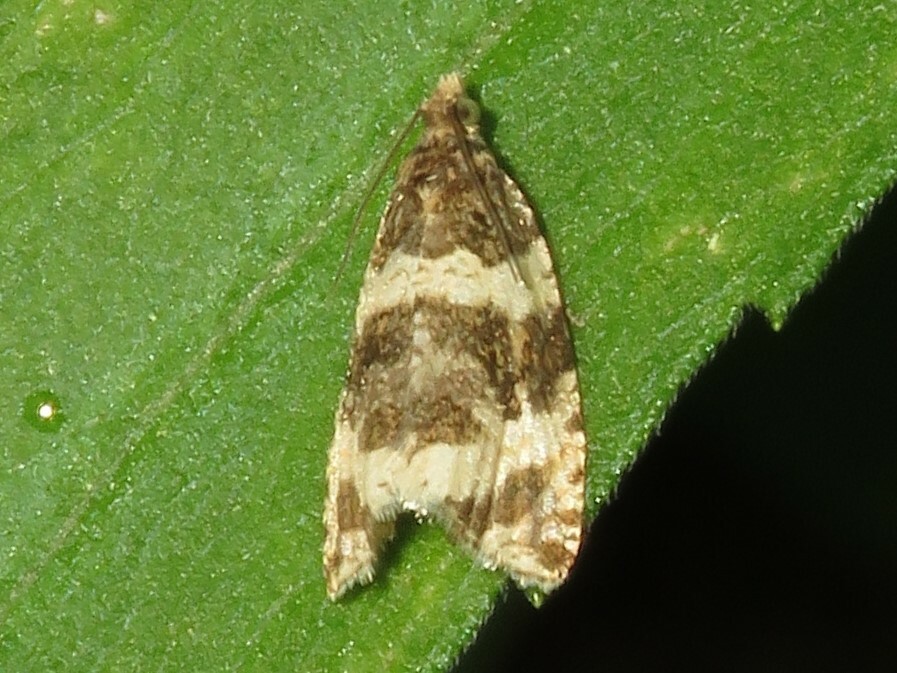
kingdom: Animalia
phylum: Arthropoda
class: Insecta
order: Lepidoptera
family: Tortricidae
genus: Olethreutes
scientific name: Olethreutes fasciatana
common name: Banded olethreutes moth
